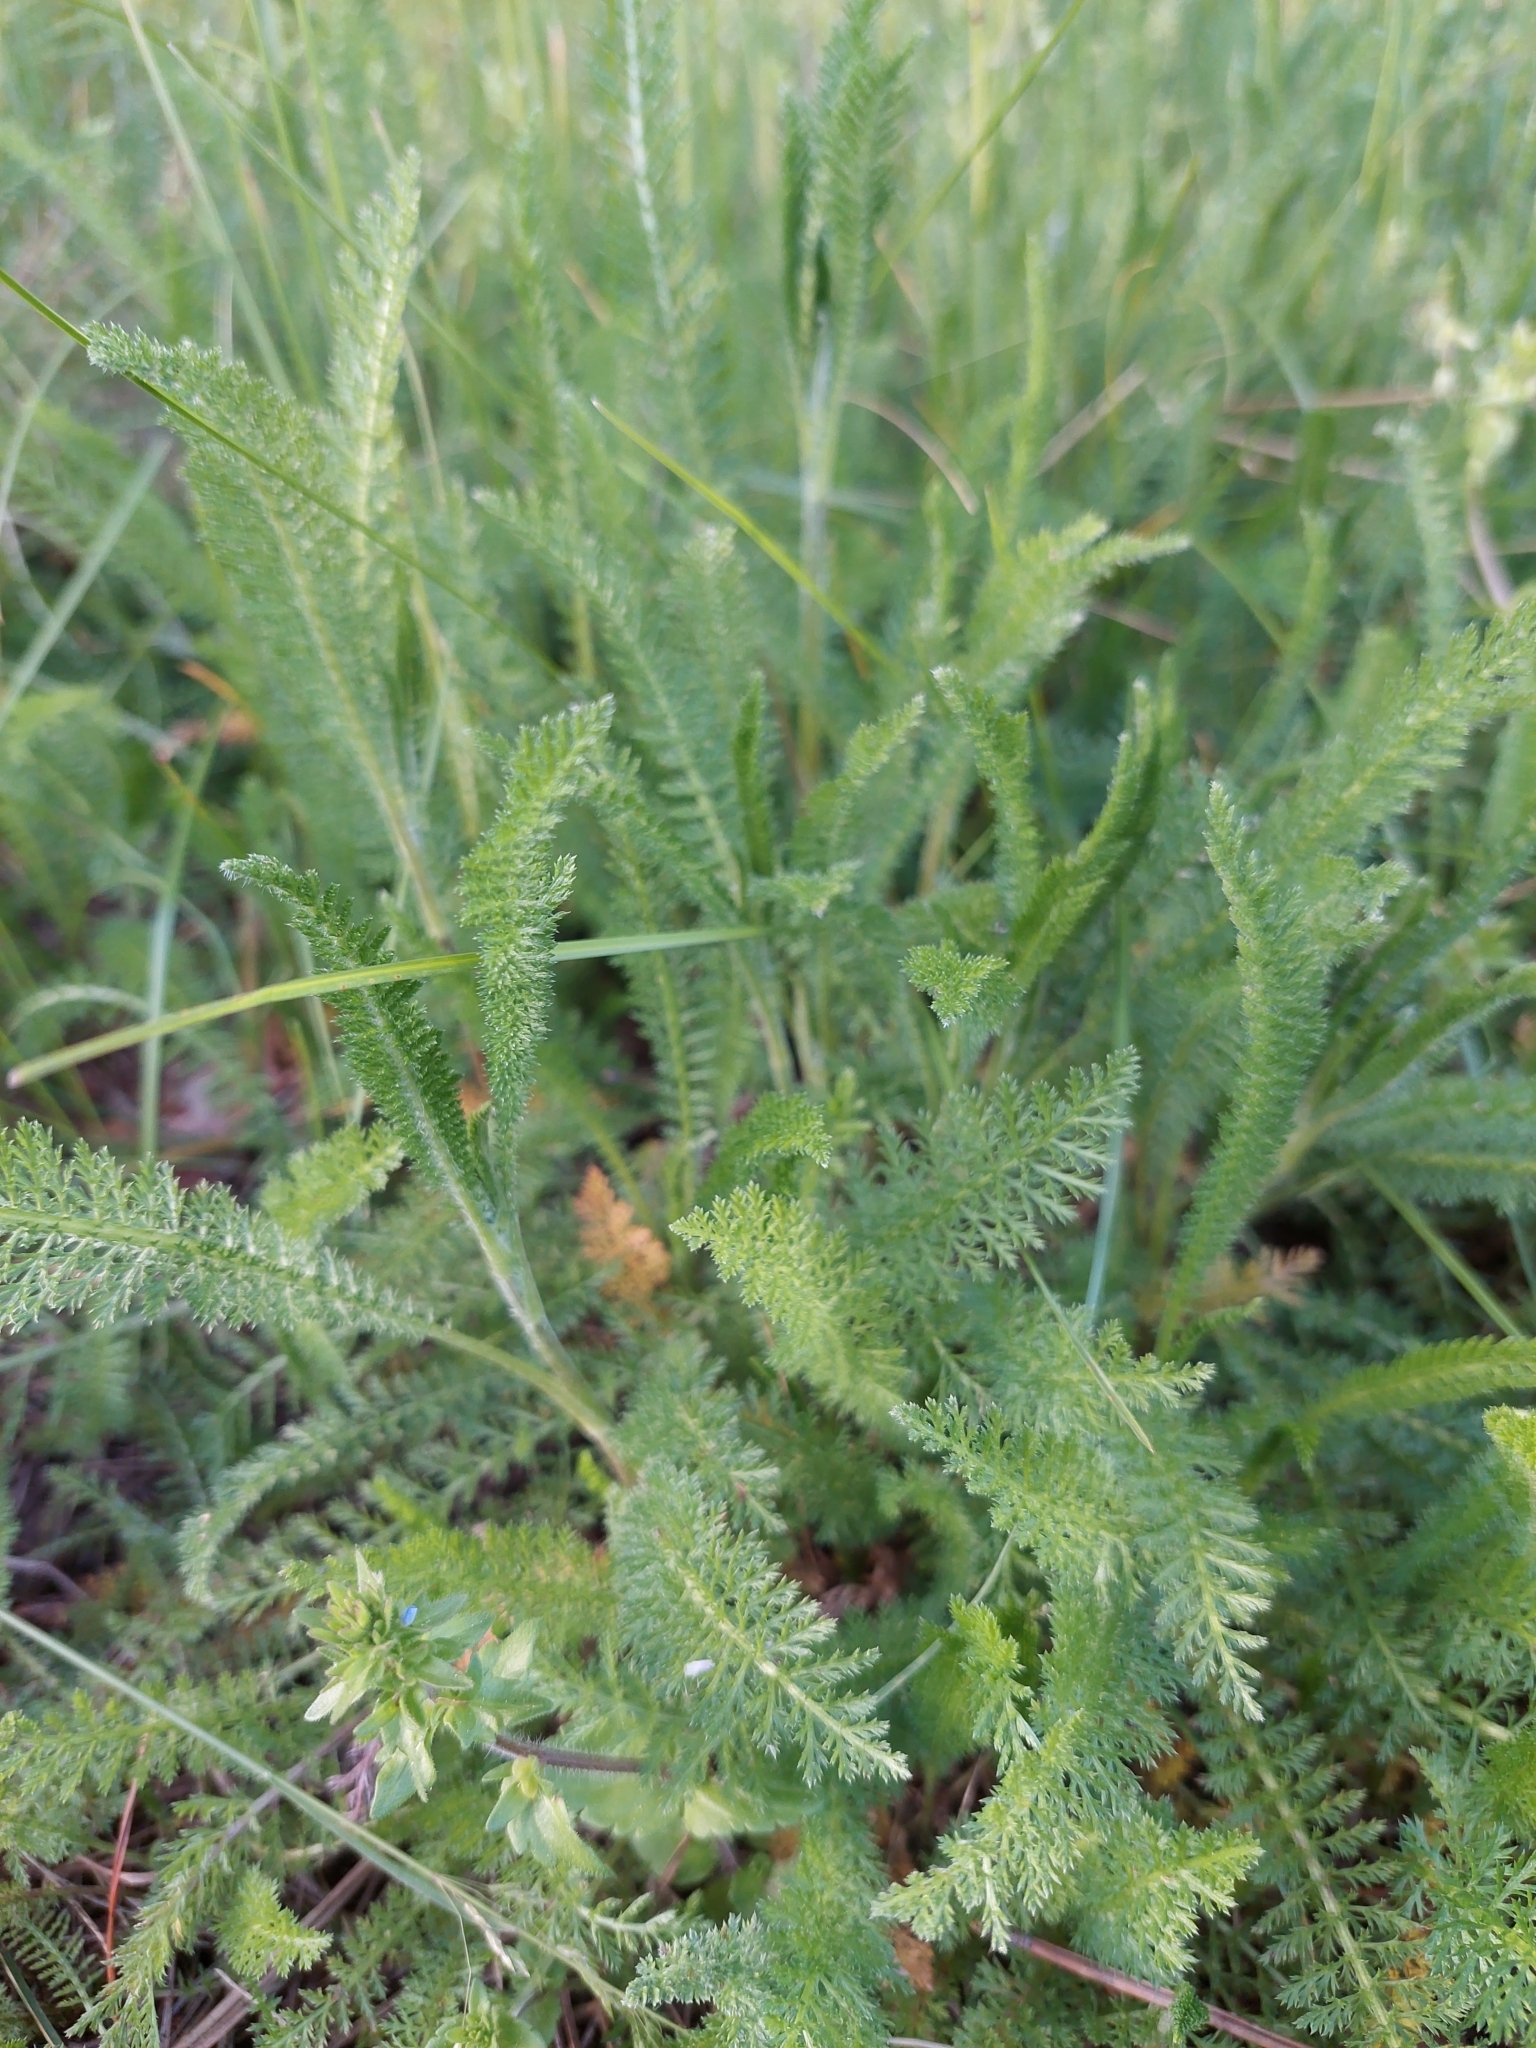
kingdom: Plantae
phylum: Tracheophyta
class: Magnoliopsida
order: Asterales
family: Asteraceae
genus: Achillea
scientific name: Achillea millefolium
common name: Yarrow
